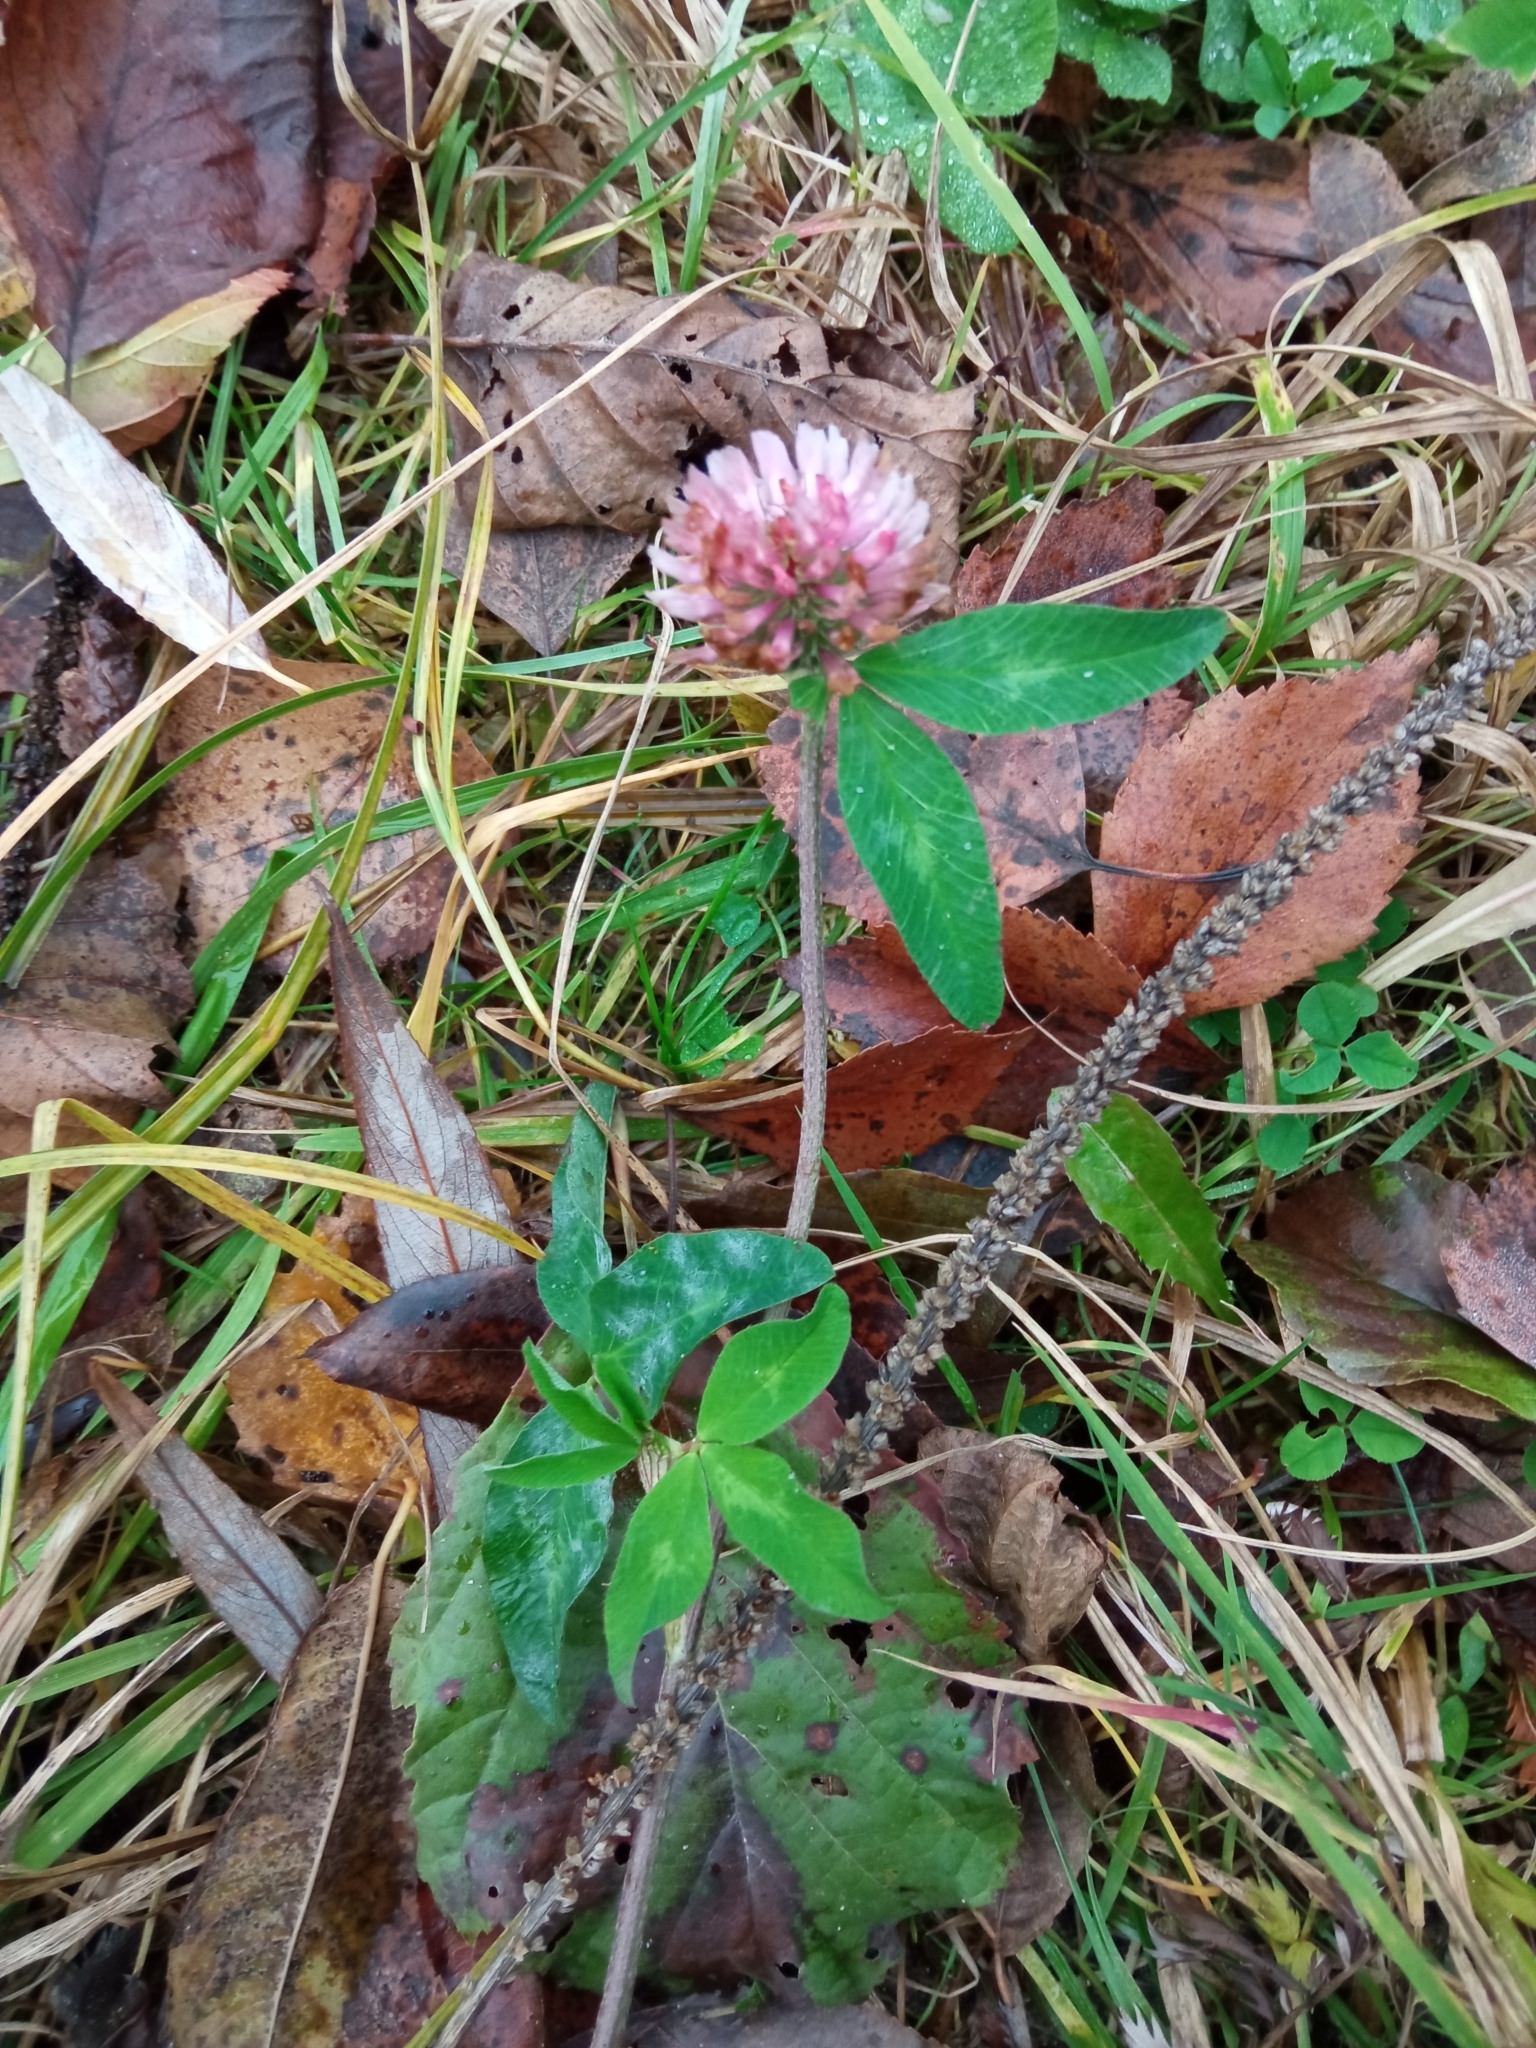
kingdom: Plantae
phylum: Tracheophyta
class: Magnoliopsida
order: Fabales
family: Fabaceae
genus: Trifolium
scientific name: Trifolium pratense
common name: Red clover
